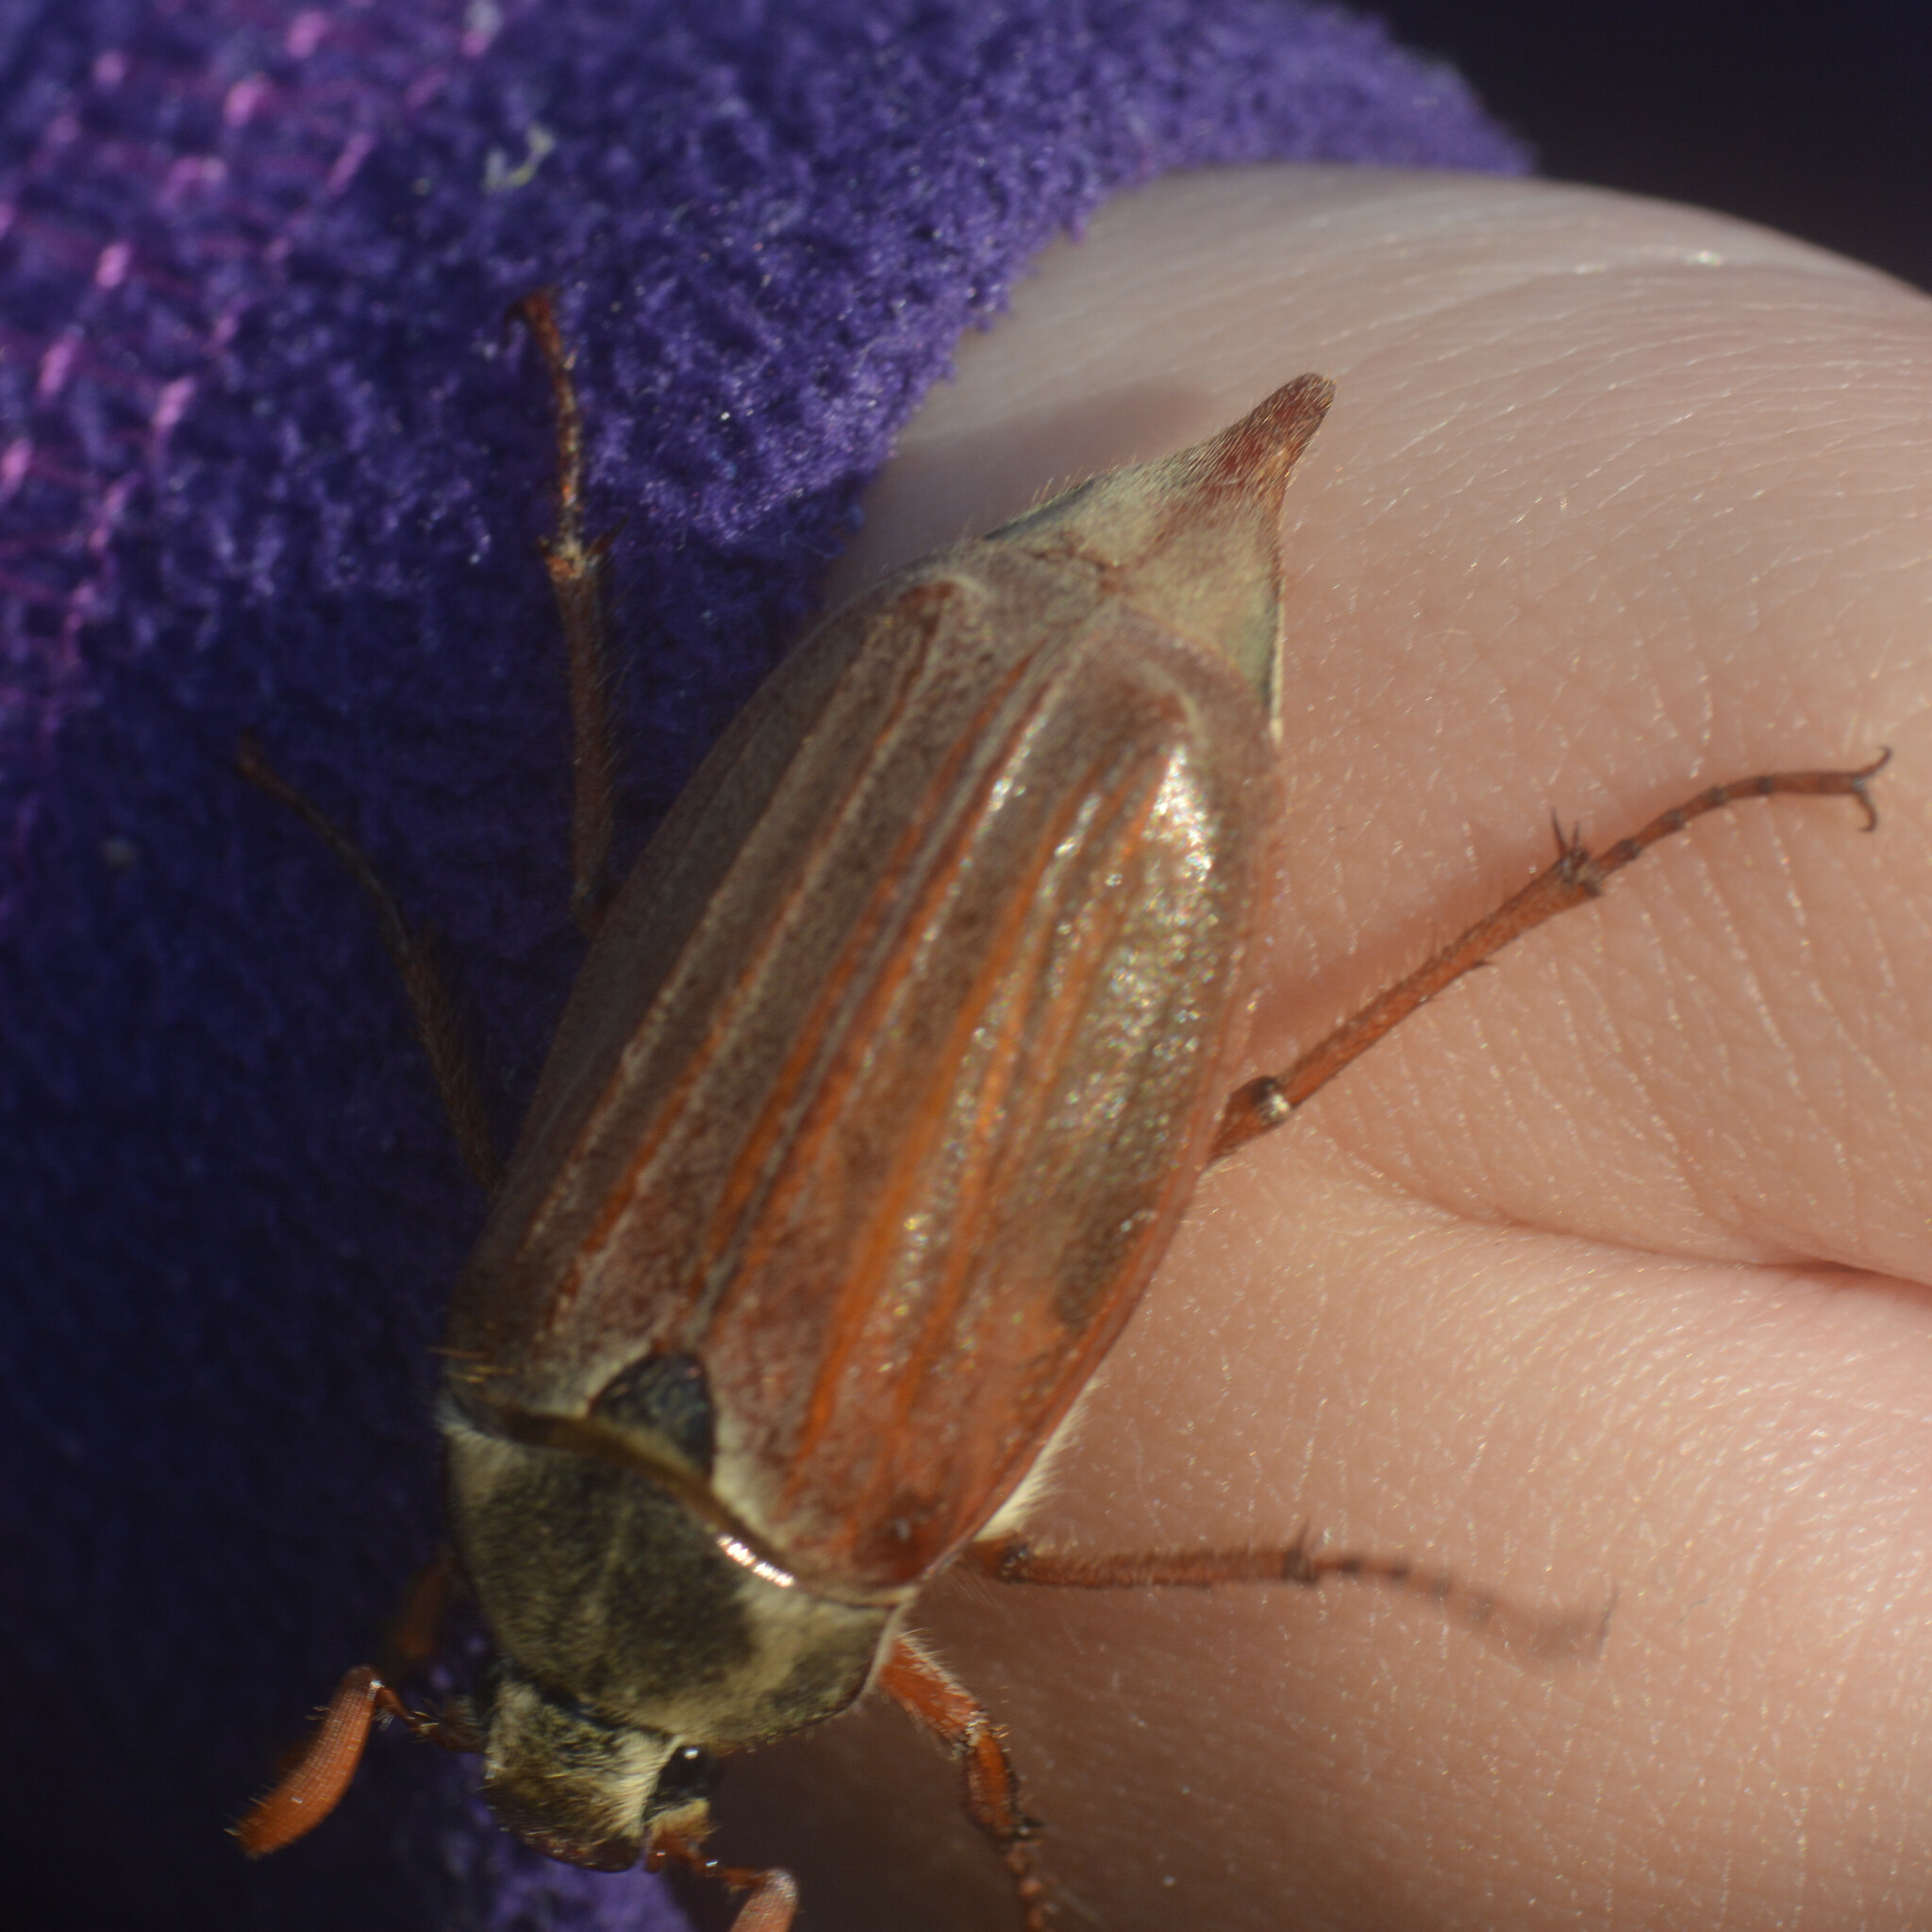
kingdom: Animalia
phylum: Arthropoda
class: Insecta
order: Coleoptera
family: Scarabaeidae
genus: Melolontha
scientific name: Melolontha melolontha
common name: Cockchafer maybeetle
